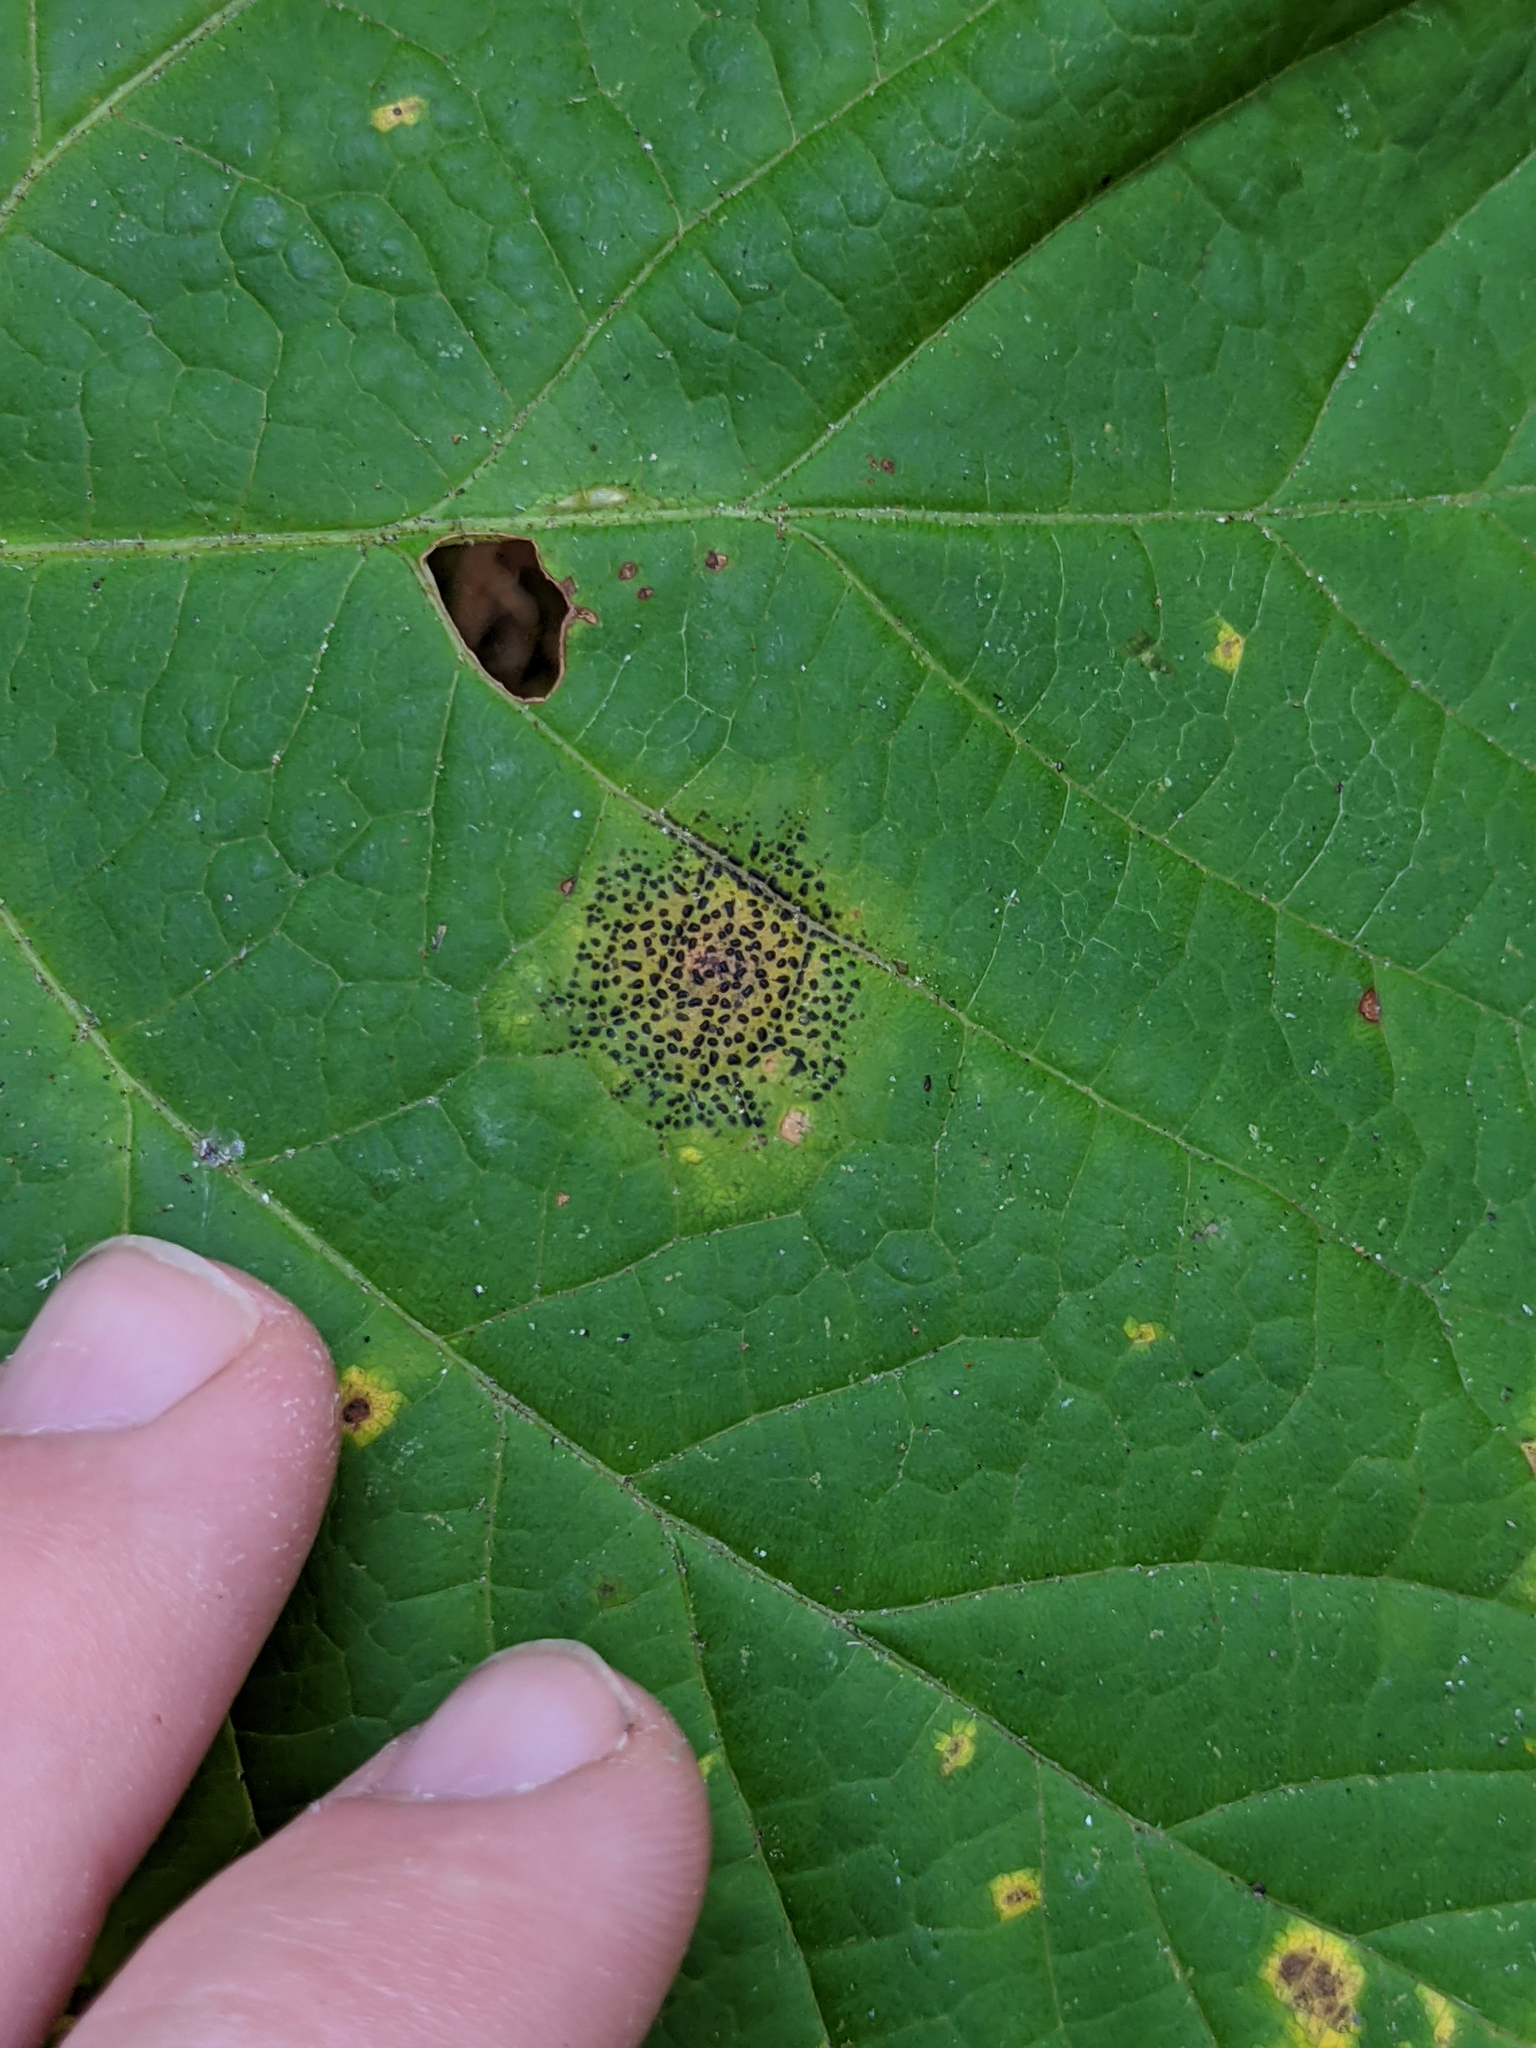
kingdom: Plantae
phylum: Tracheophyta
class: Magnoliopsida
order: Sapindales
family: Sapindaceae
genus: Acer
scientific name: Acer pensylvanicum
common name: Moosewood
